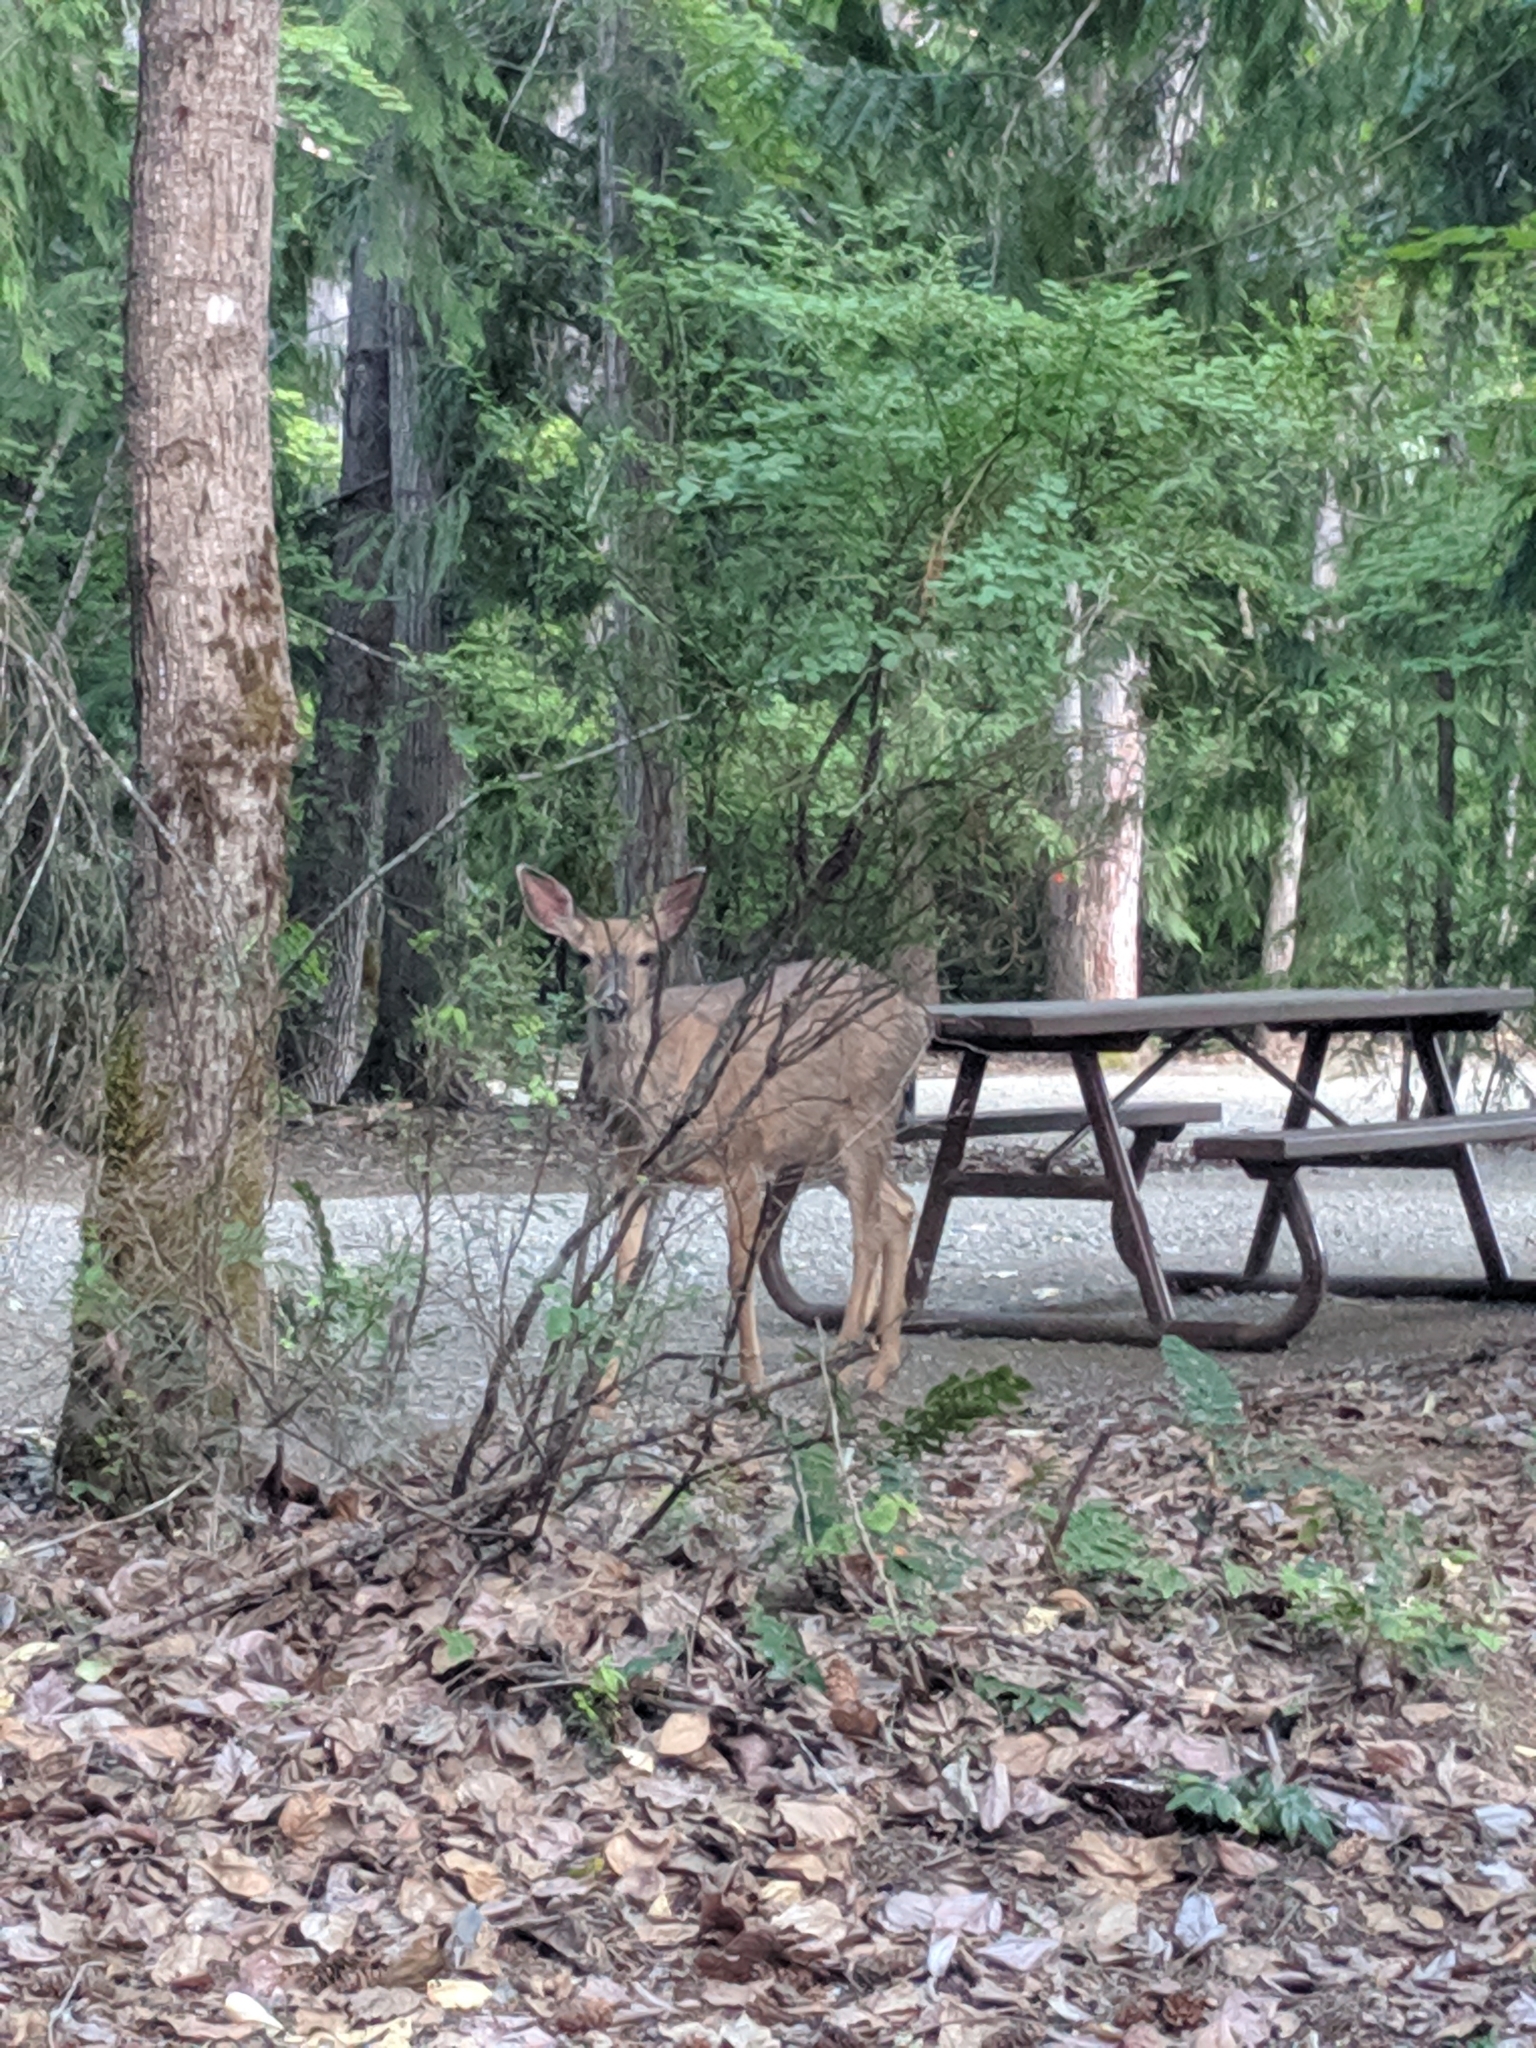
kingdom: Animalia
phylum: Chordata
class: Mammalia
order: Artiodactyla
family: Cervidae
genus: Odocoileus
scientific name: Odocoileus hemionus
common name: Mule deer
